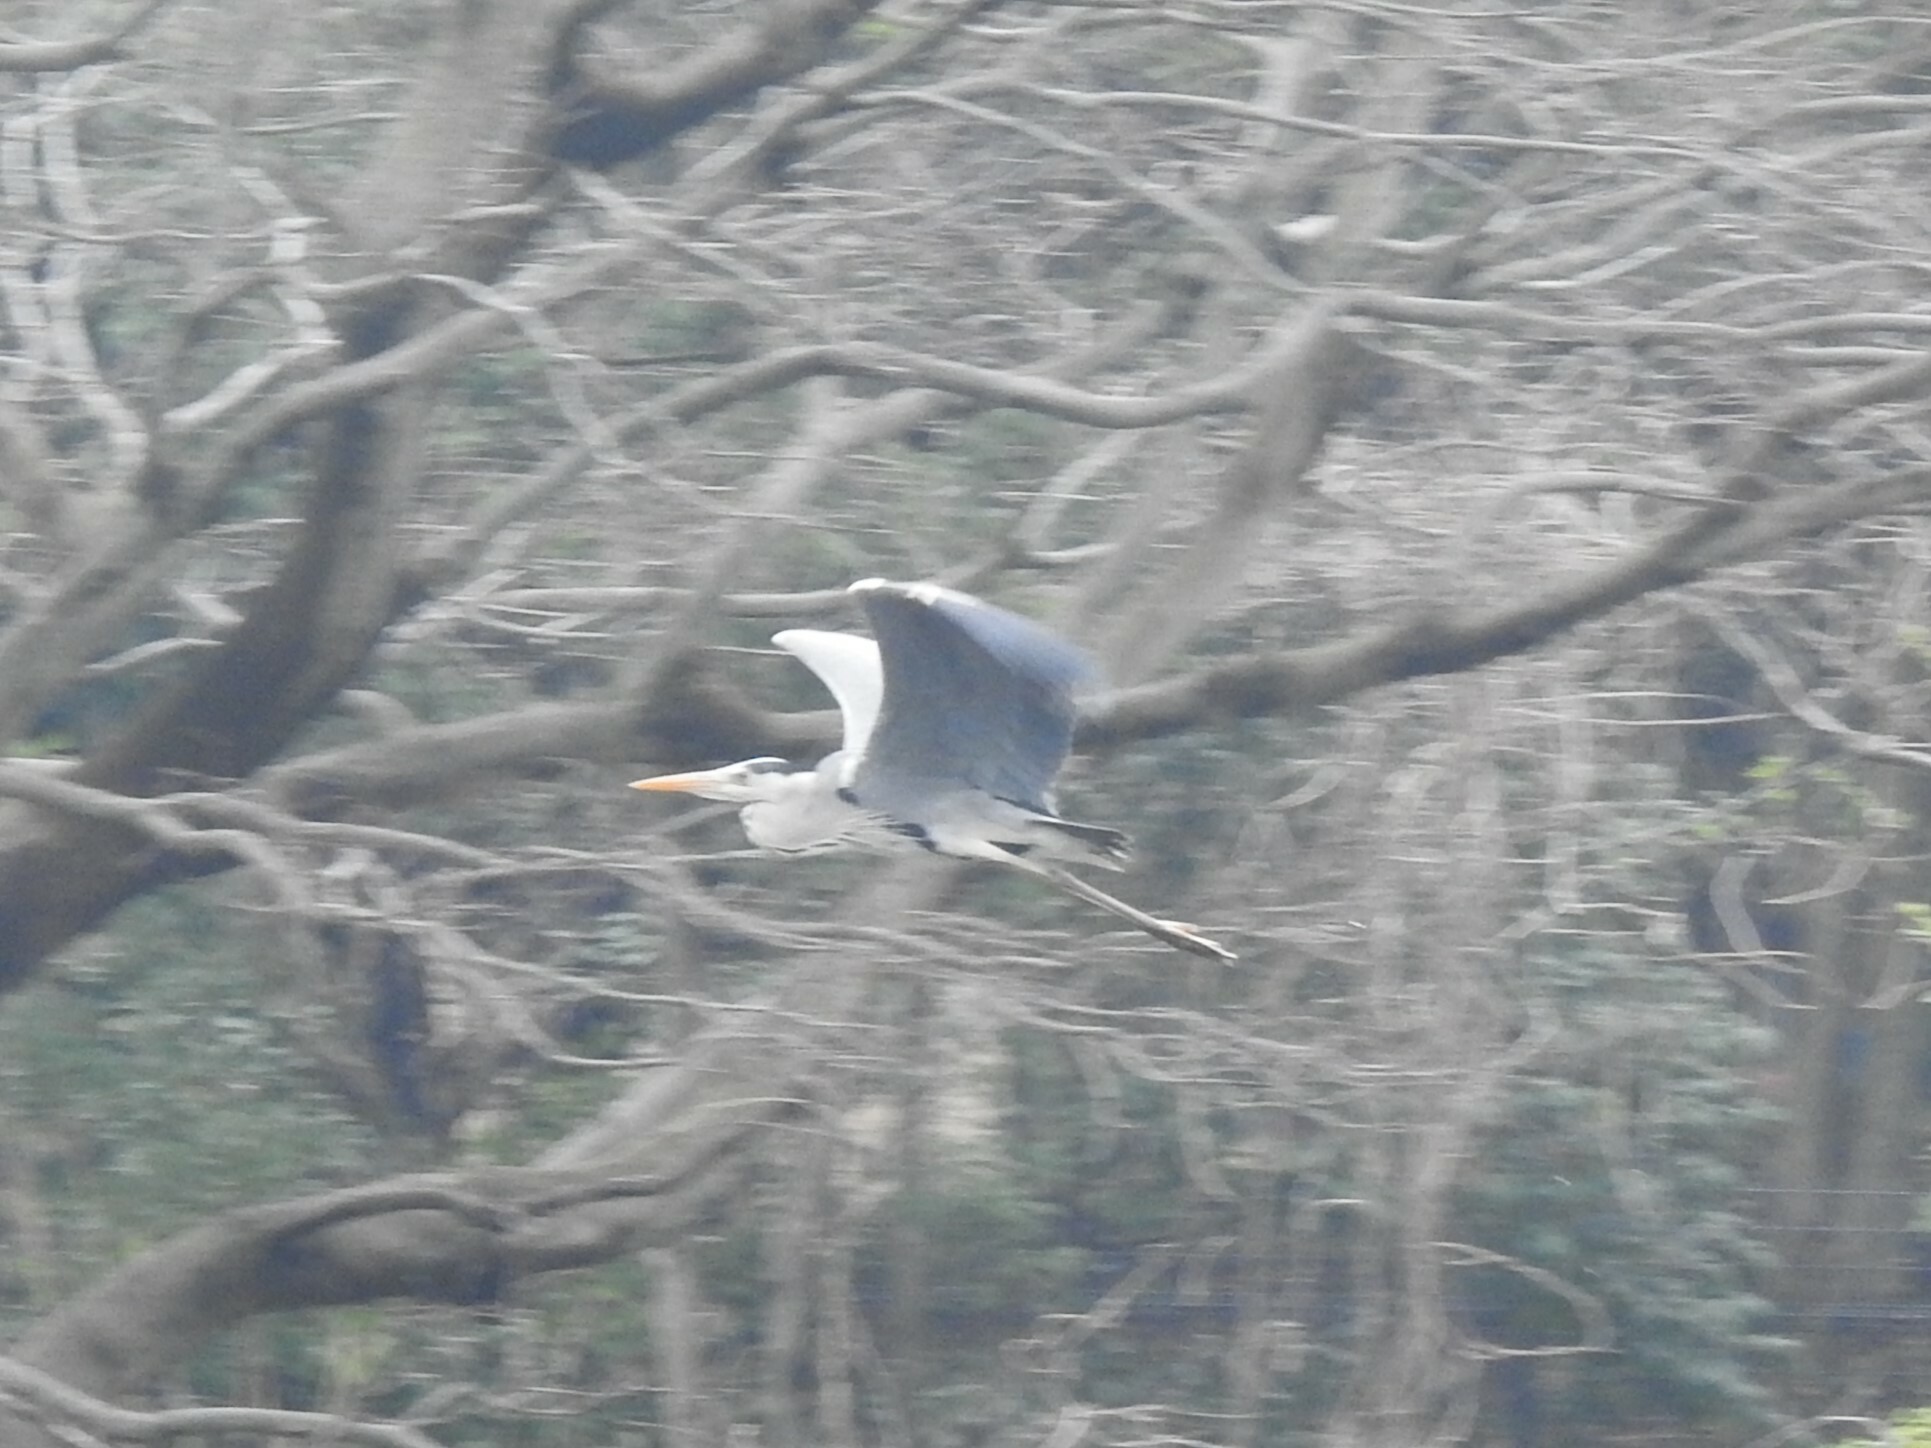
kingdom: Animalia
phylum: Chordata
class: Aves
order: Pelecaniformes
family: Ardeidae
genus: Ardea
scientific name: Ardea cinerea
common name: Grey heron
